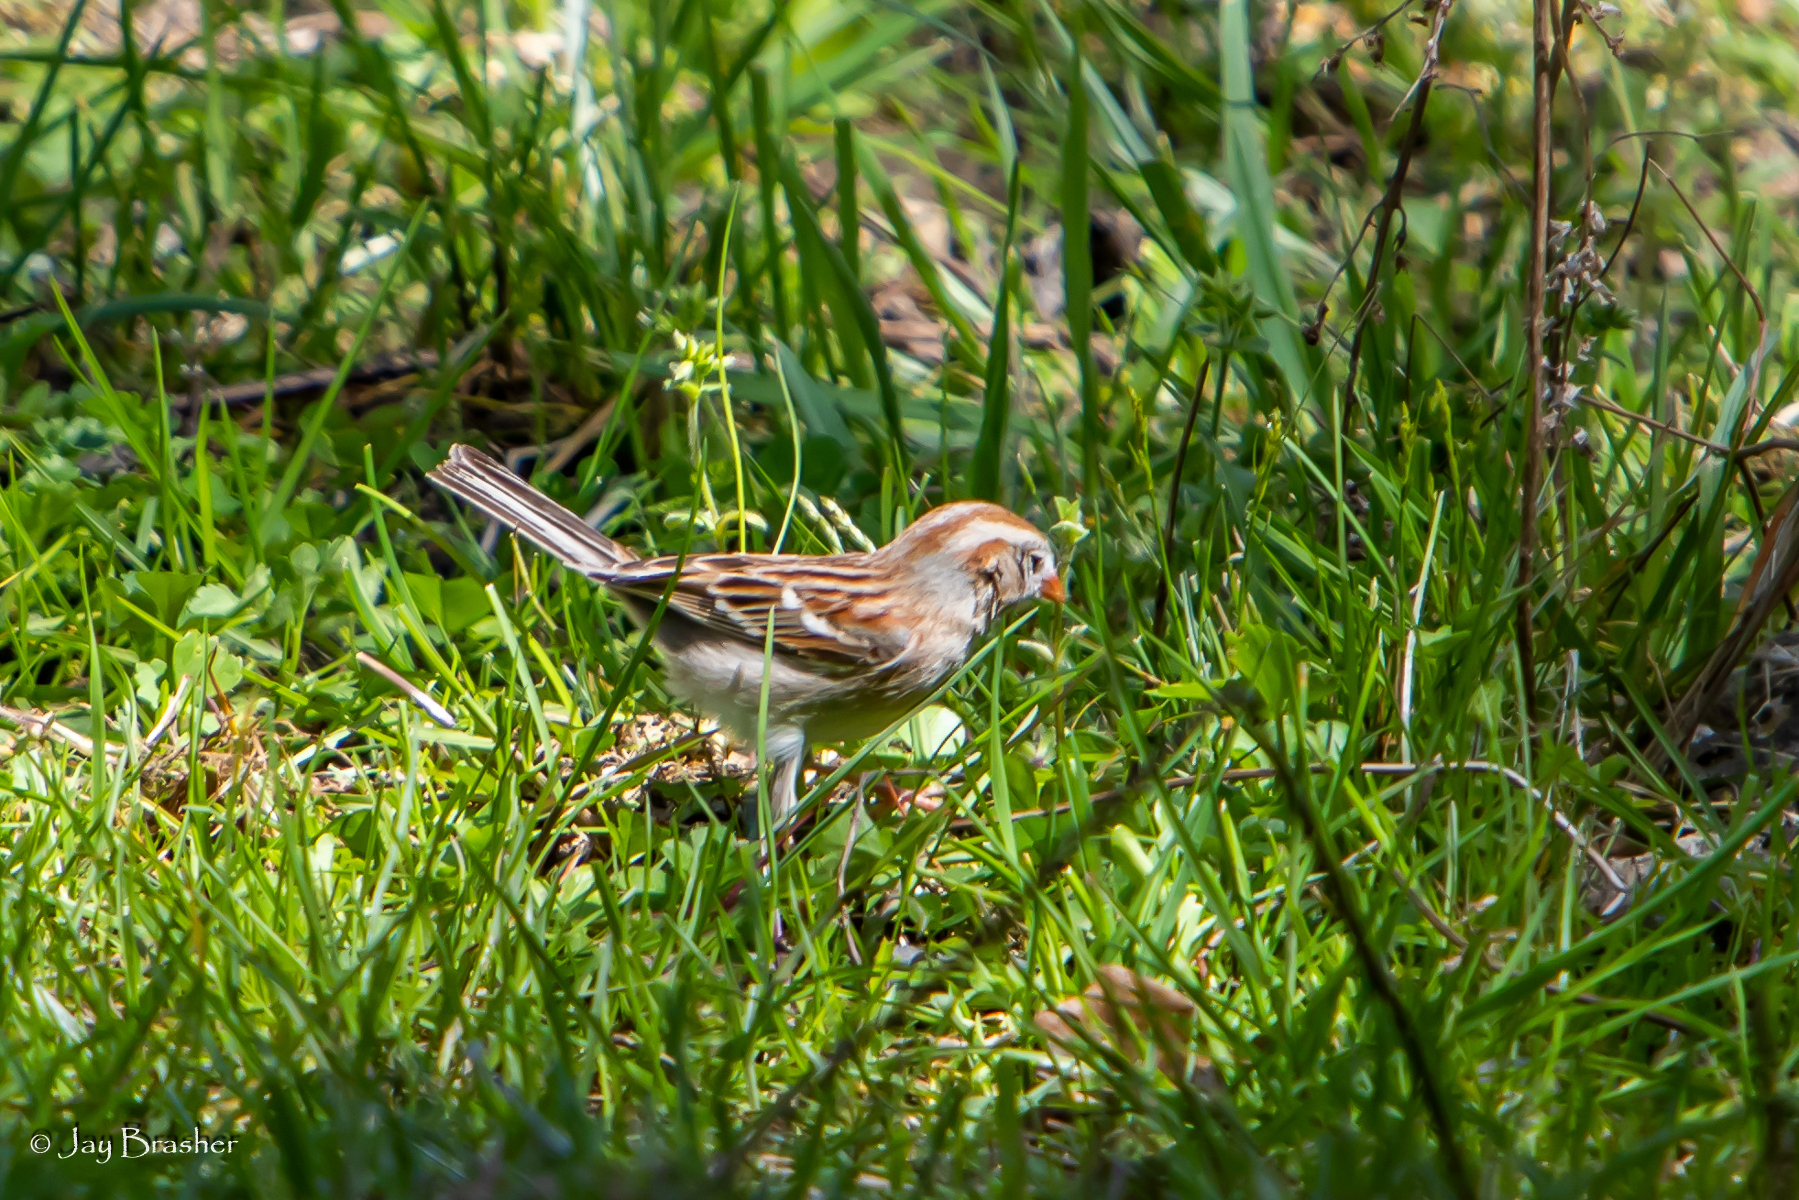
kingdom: Animalia
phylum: Chordata
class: Aves
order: Passeriformes
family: Passerellidae
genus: Spizella
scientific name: Spizella pusilla
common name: Field sparrow
